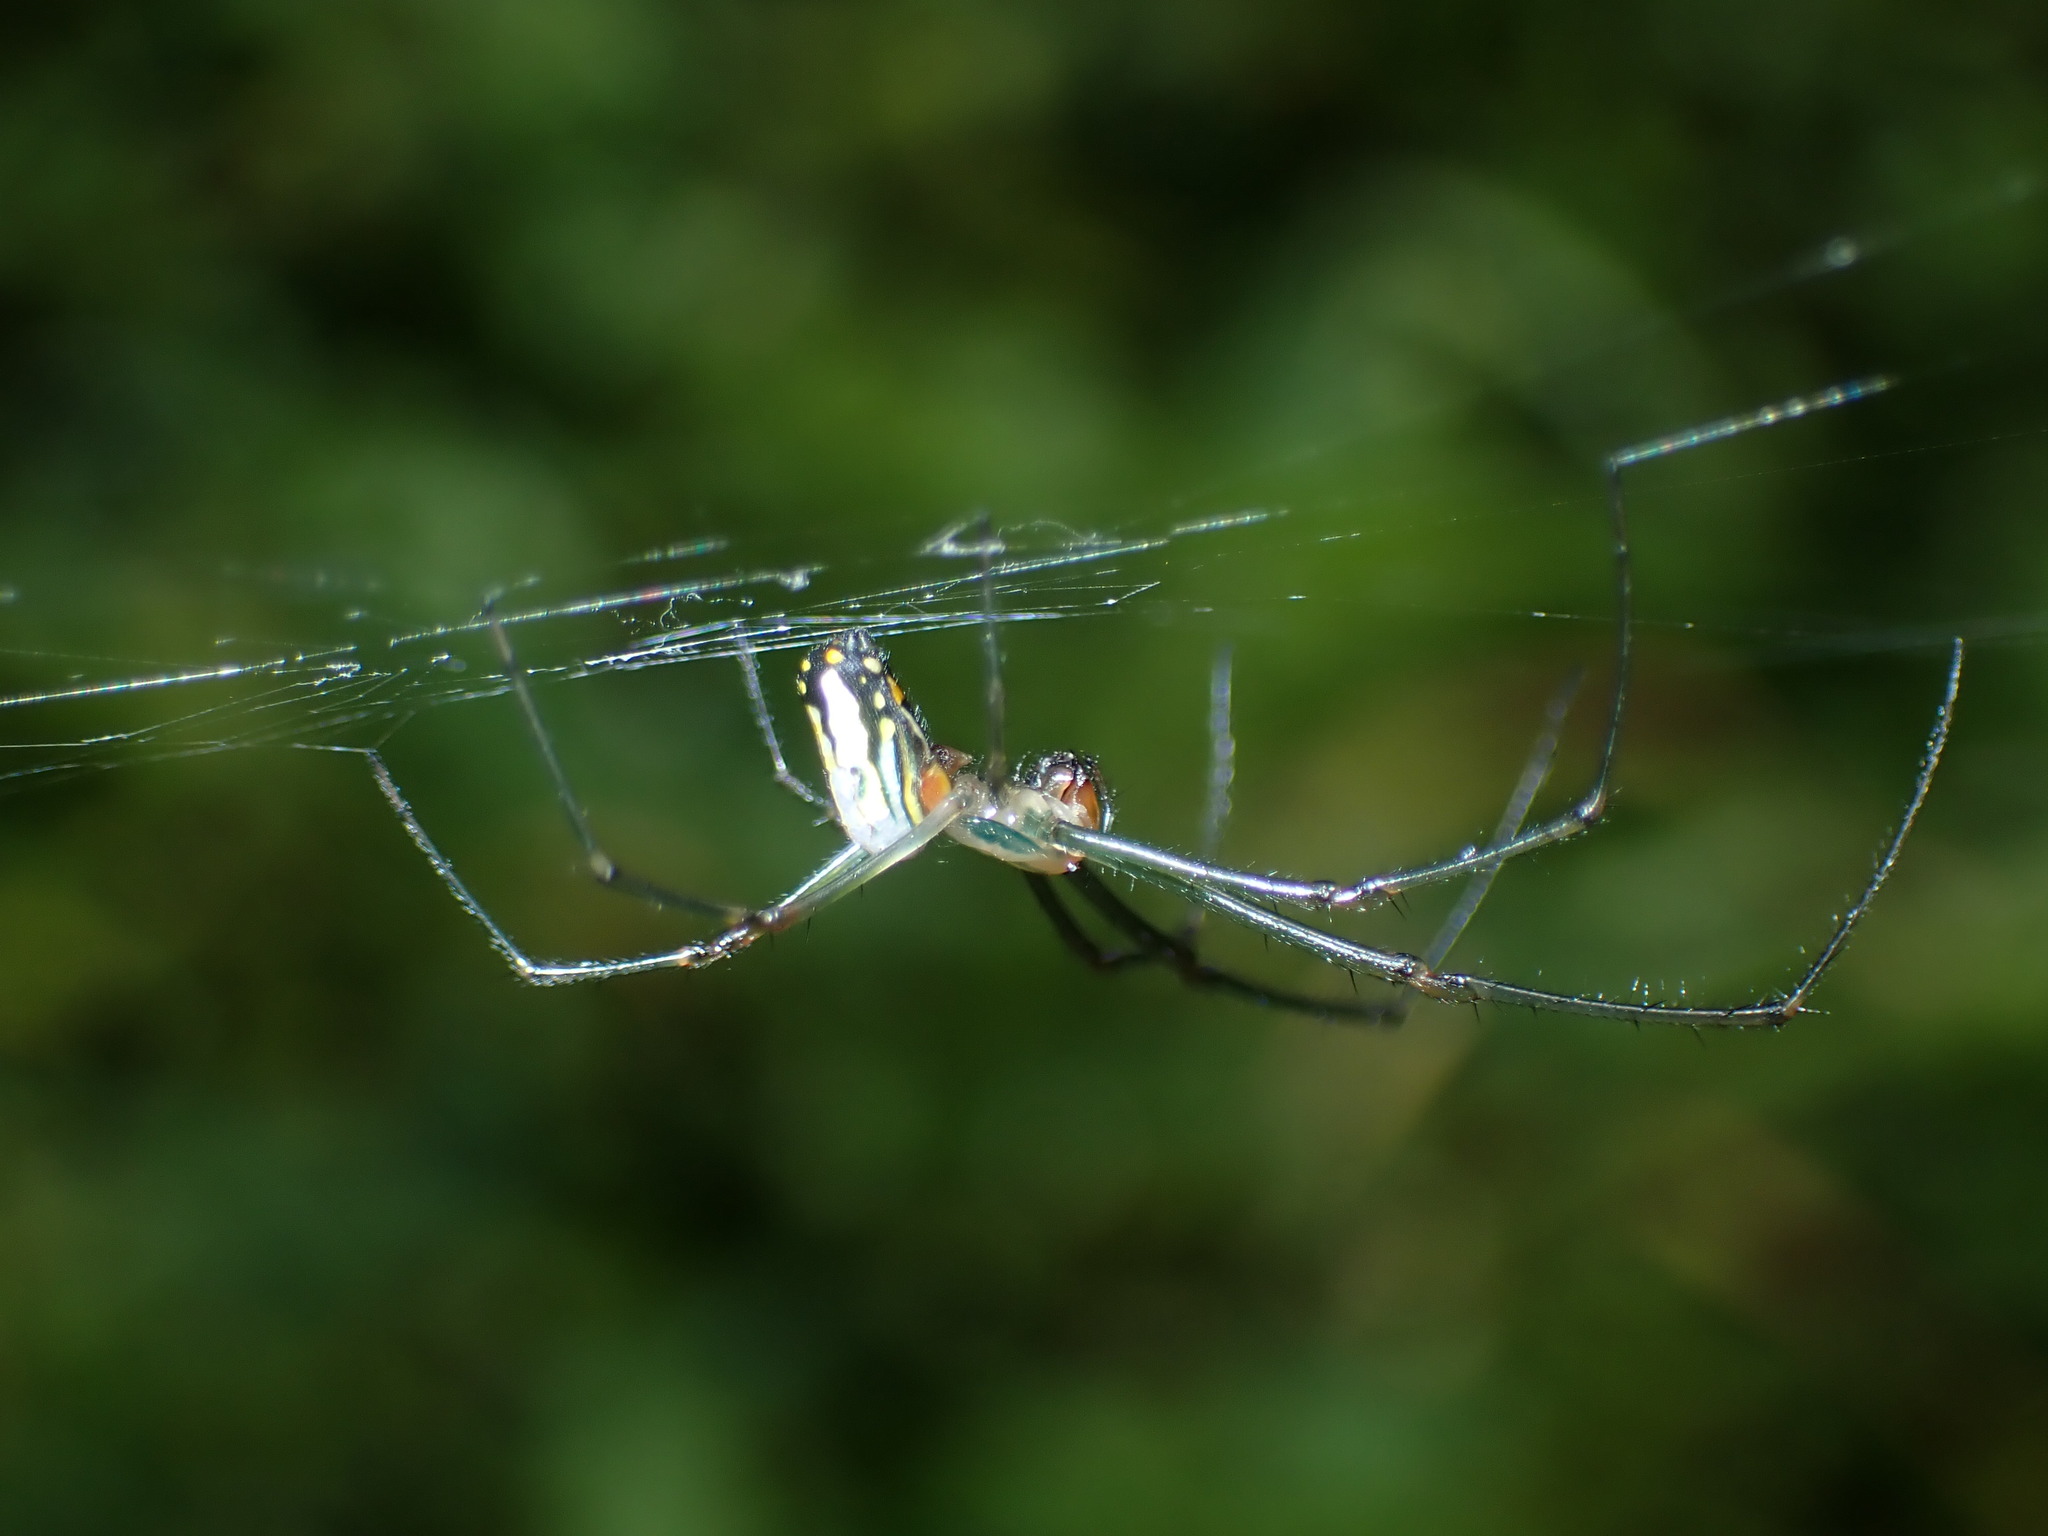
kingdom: Animalia
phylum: Arthropoda
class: Arachnida
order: Araneae
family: Tetragnathidae
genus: Leucauge
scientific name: Leucauge argyra
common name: Longjawed orb weavers
